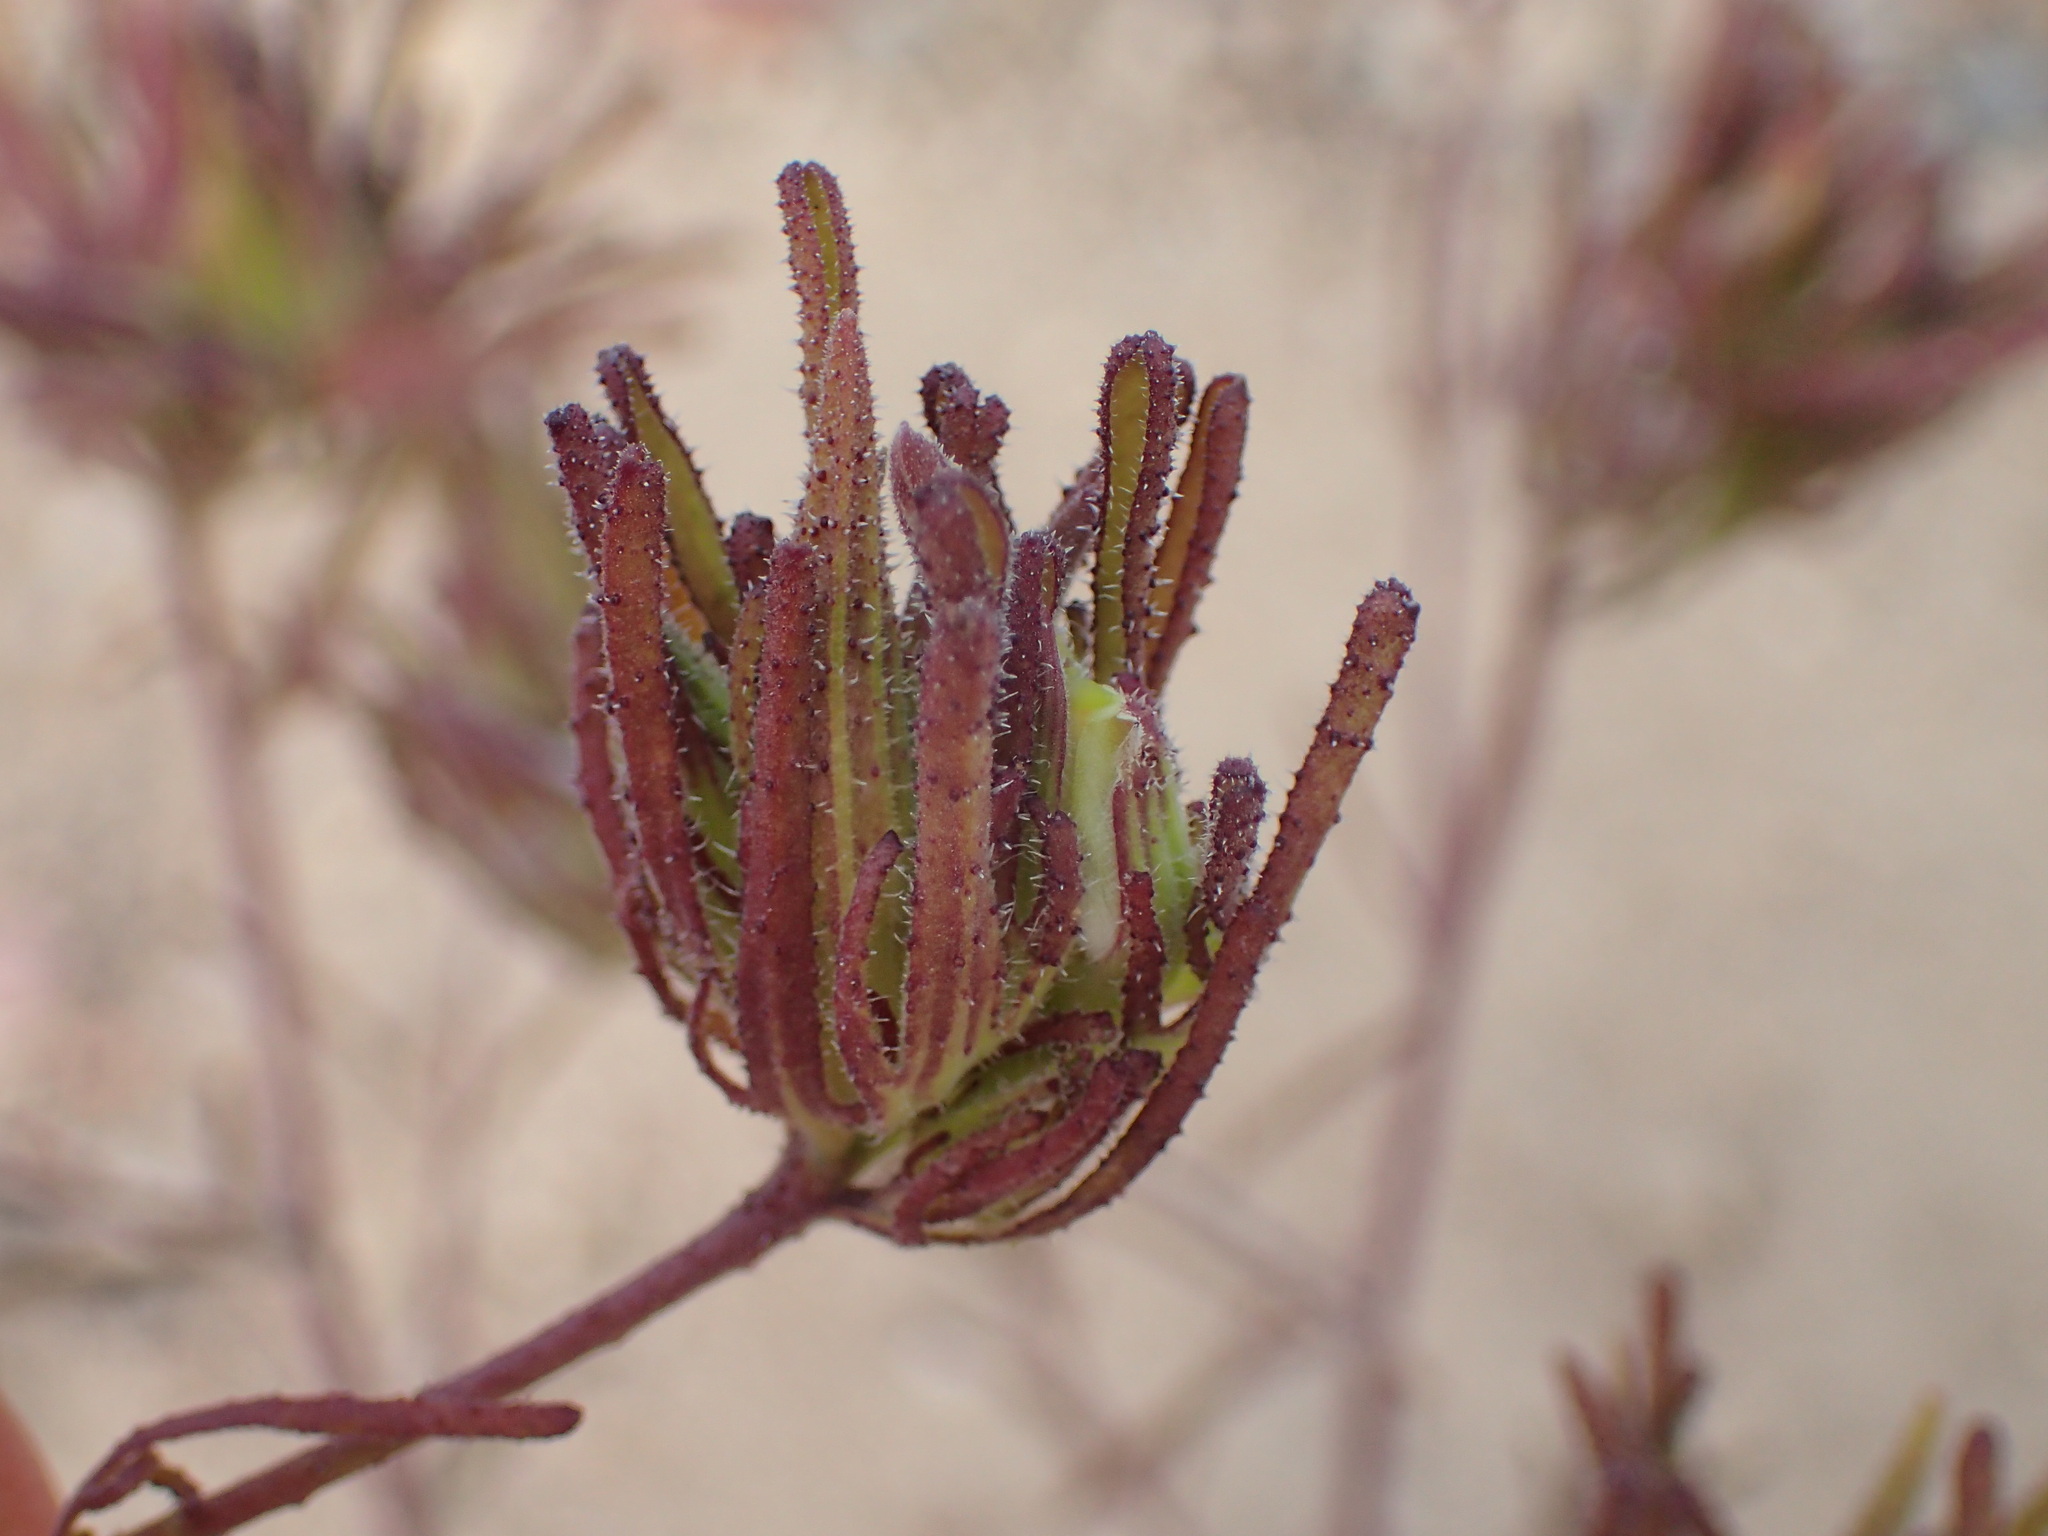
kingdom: Plantae
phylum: Tracheophyta
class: Magnoliopsida
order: Lamiales
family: Orobanchaceae
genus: Cordylanthus
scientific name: Cordylanthus rigidus
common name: Stiff-branch bird's-beak
